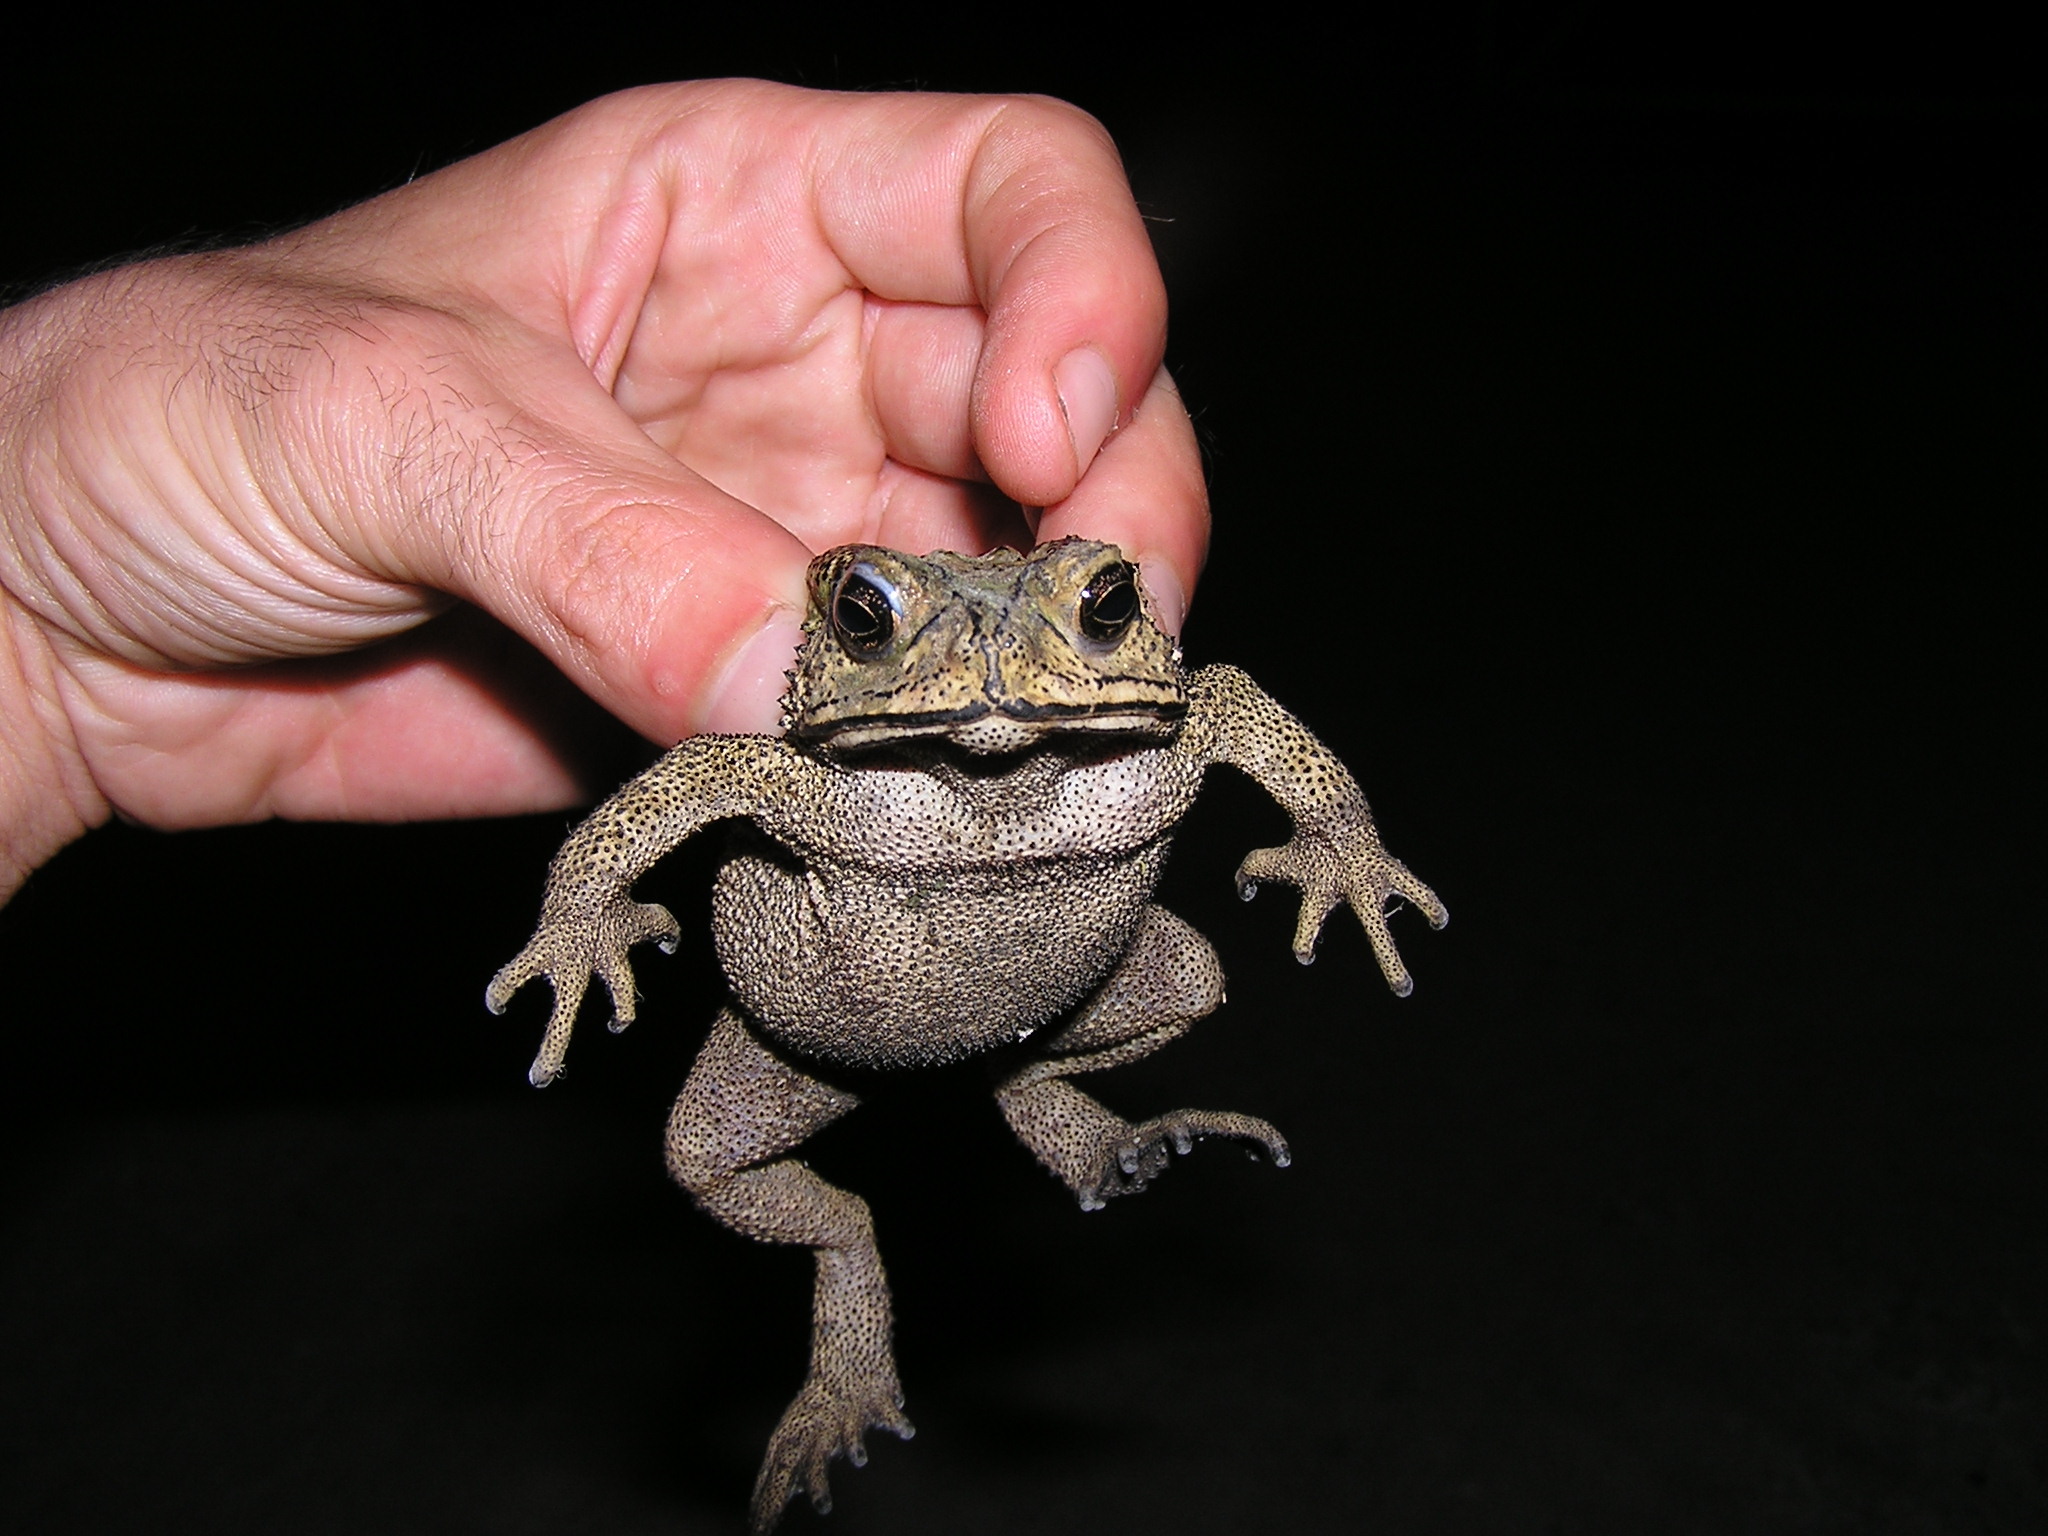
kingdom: Animalia
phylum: Chordata
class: Amphibia
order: Anura
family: Bufonidae
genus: Duttaphrynus
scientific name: Duttaphrynus melanostictus
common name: Common sunda toad
